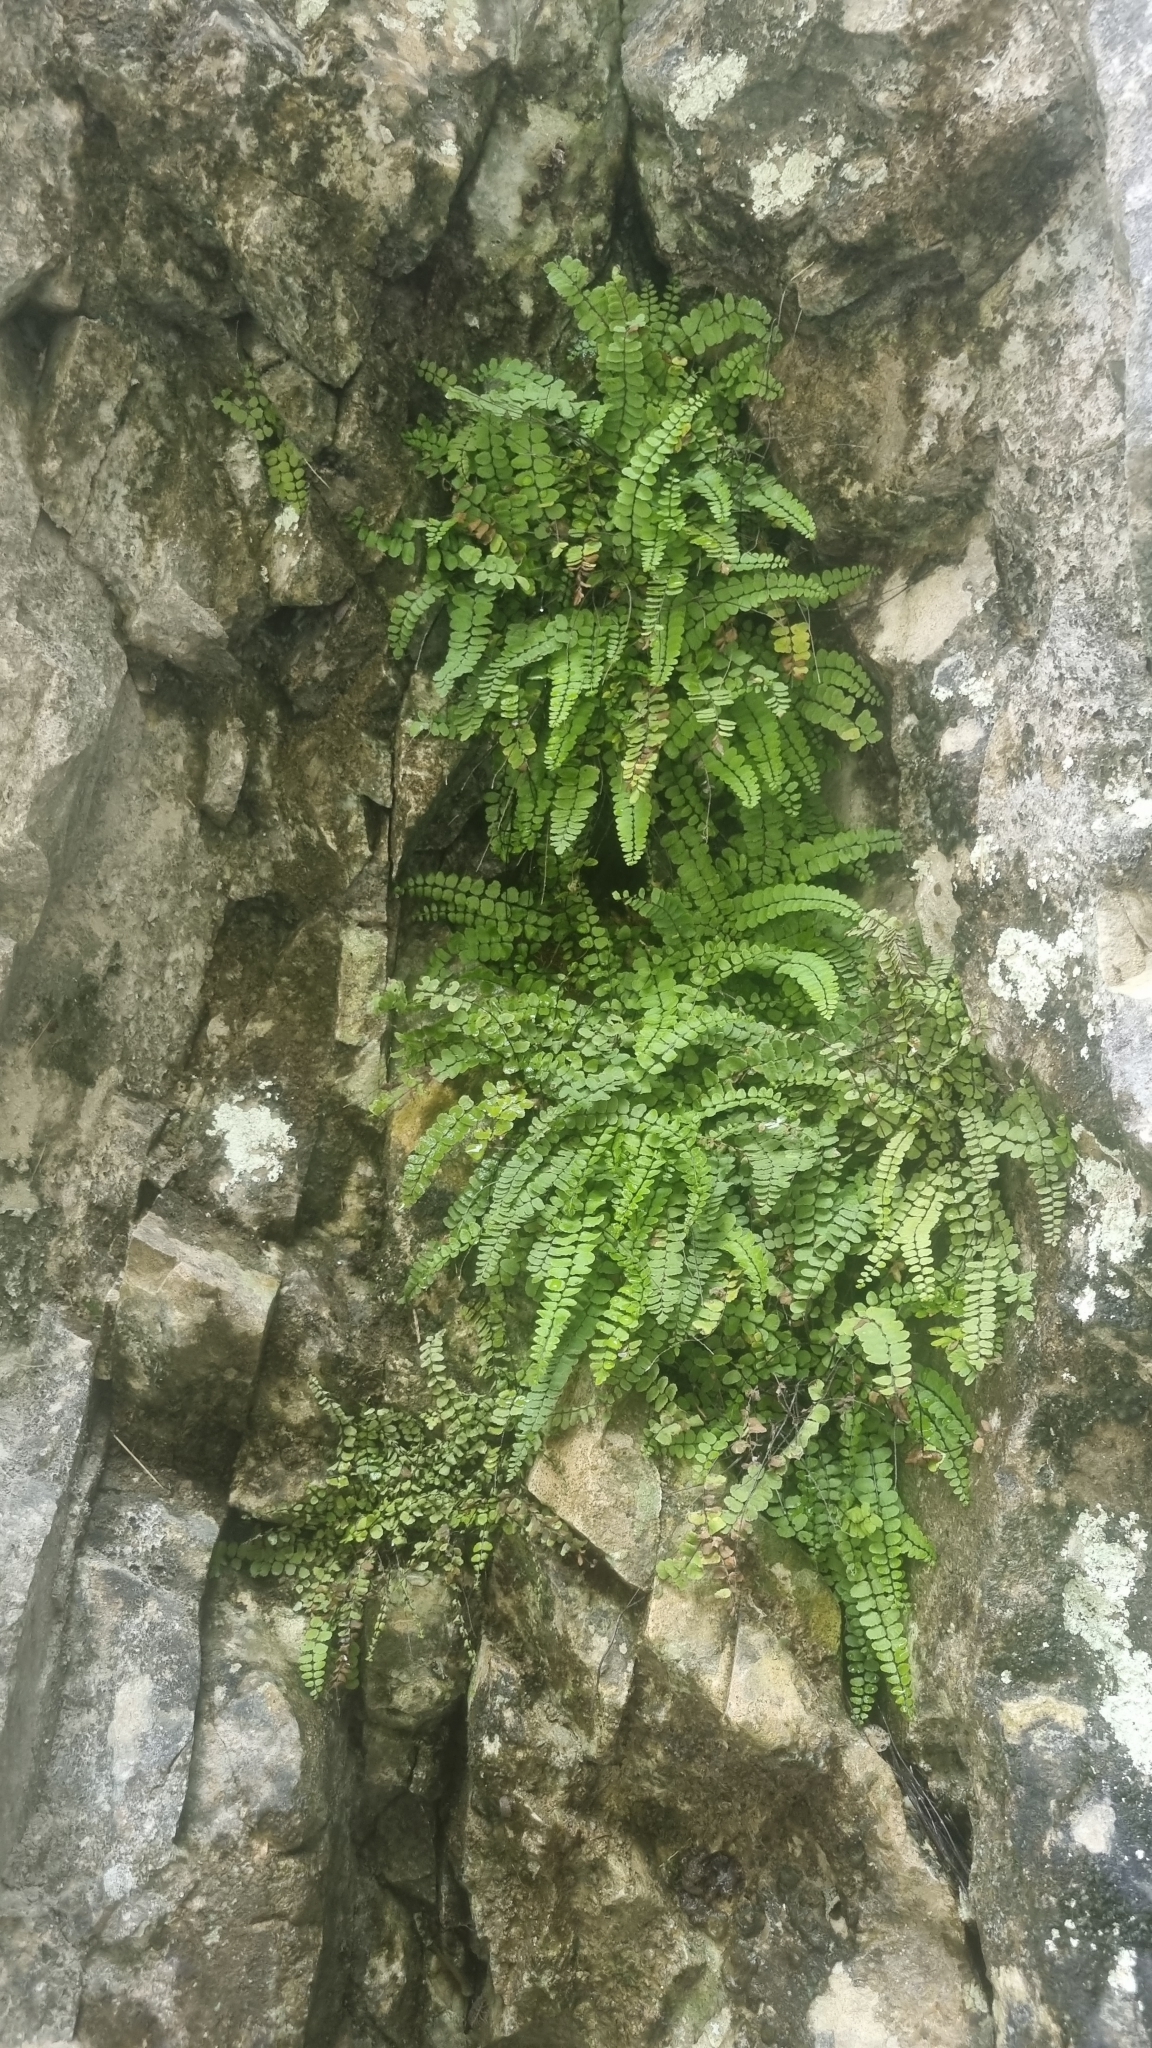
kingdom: Plantae
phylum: Tracheophyta
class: Polypodiopsida
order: Polypodiales
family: Aspleniaceae
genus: Asplenium
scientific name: Asplenium trichomanes
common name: Maidenhair spleenwort
